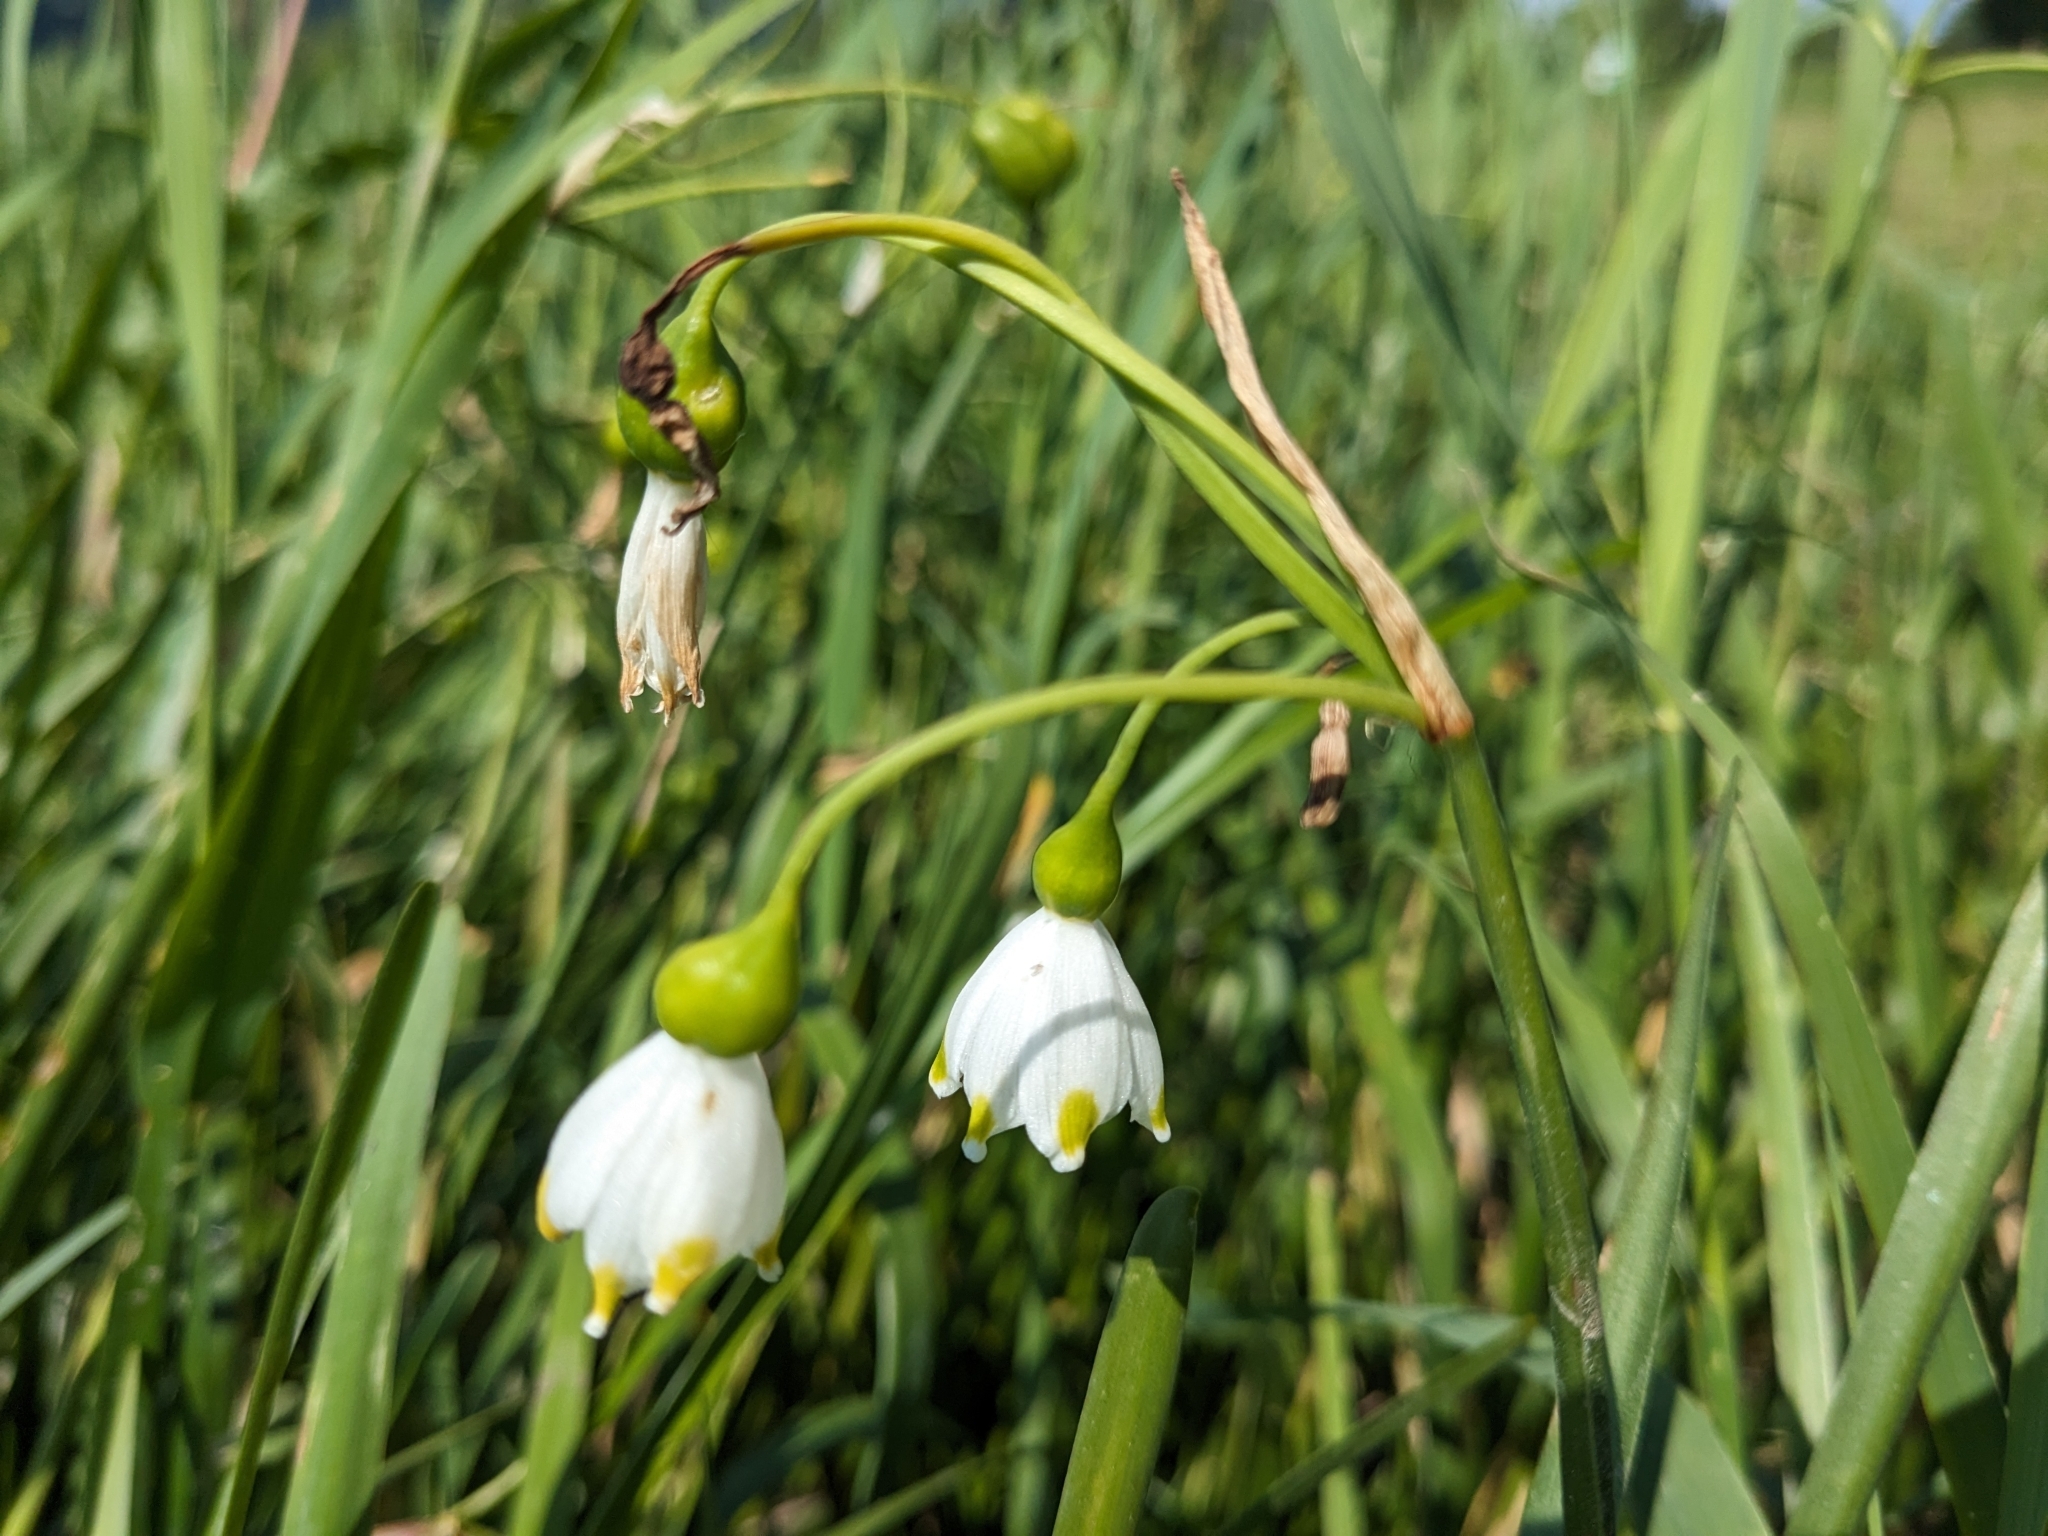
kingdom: Plantae
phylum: Tracheophyta
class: Liliopsida
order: Asparagales
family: Amaryllidaceae
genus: Leucojum
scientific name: Leucojum aestivum
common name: Summer snowflake
